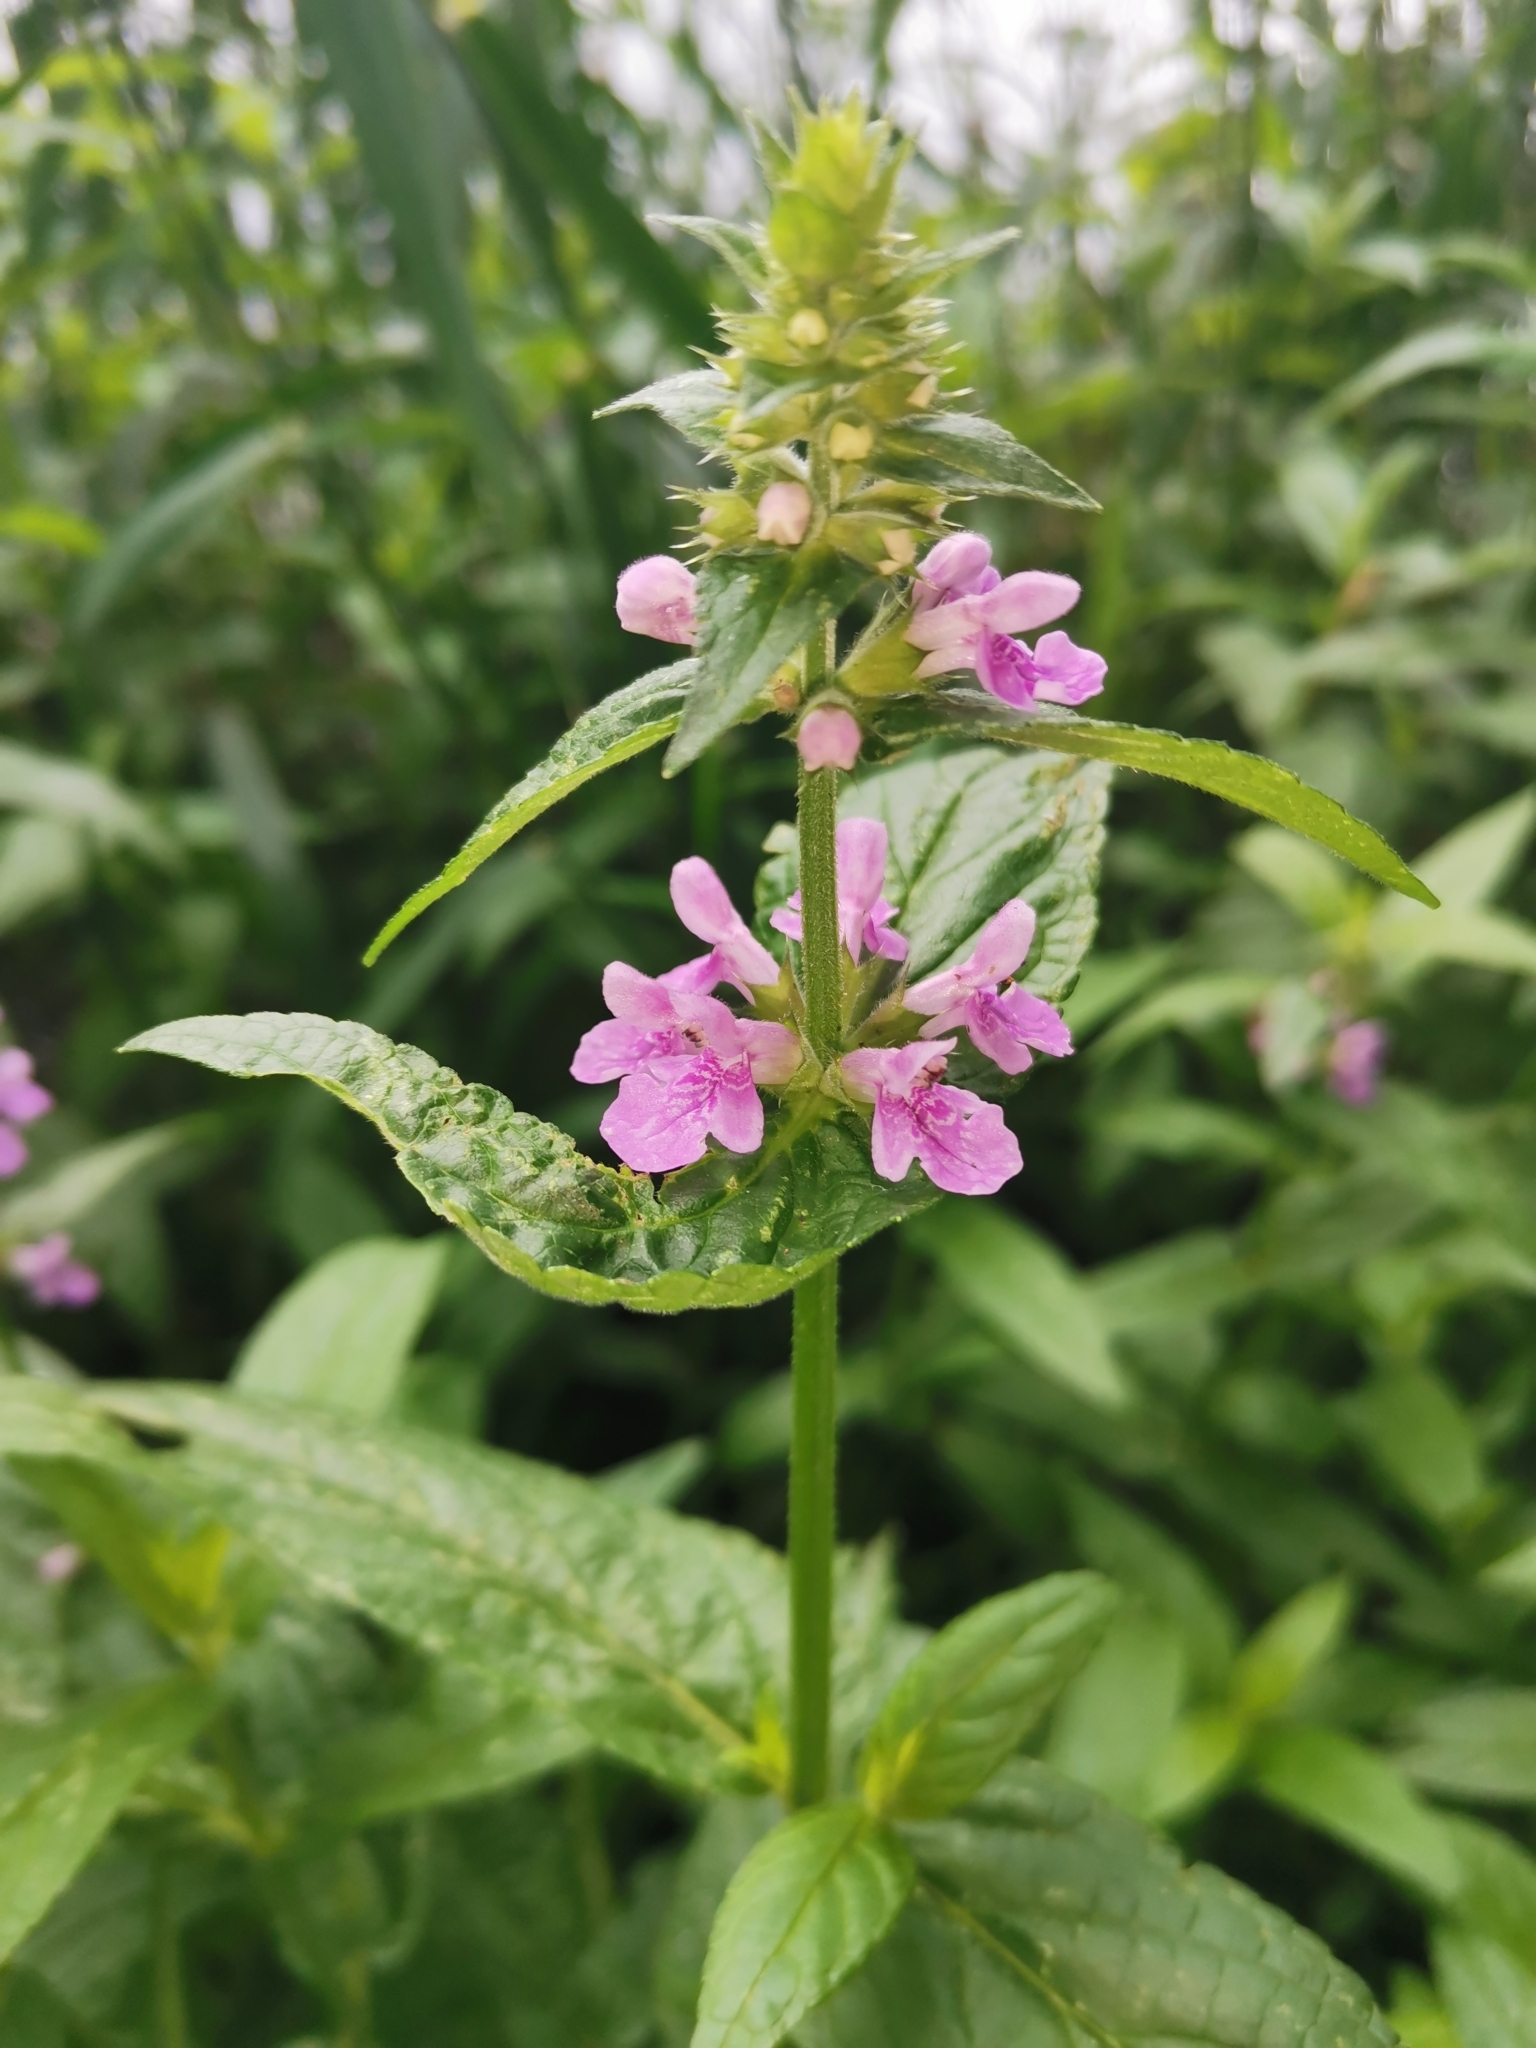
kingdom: Plantae
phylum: Tracheophyta
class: Magnoliopsida
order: Lamiales
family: Lamiaceae
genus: Stachys
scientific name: Stachys palustris
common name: Marsh woundwort
